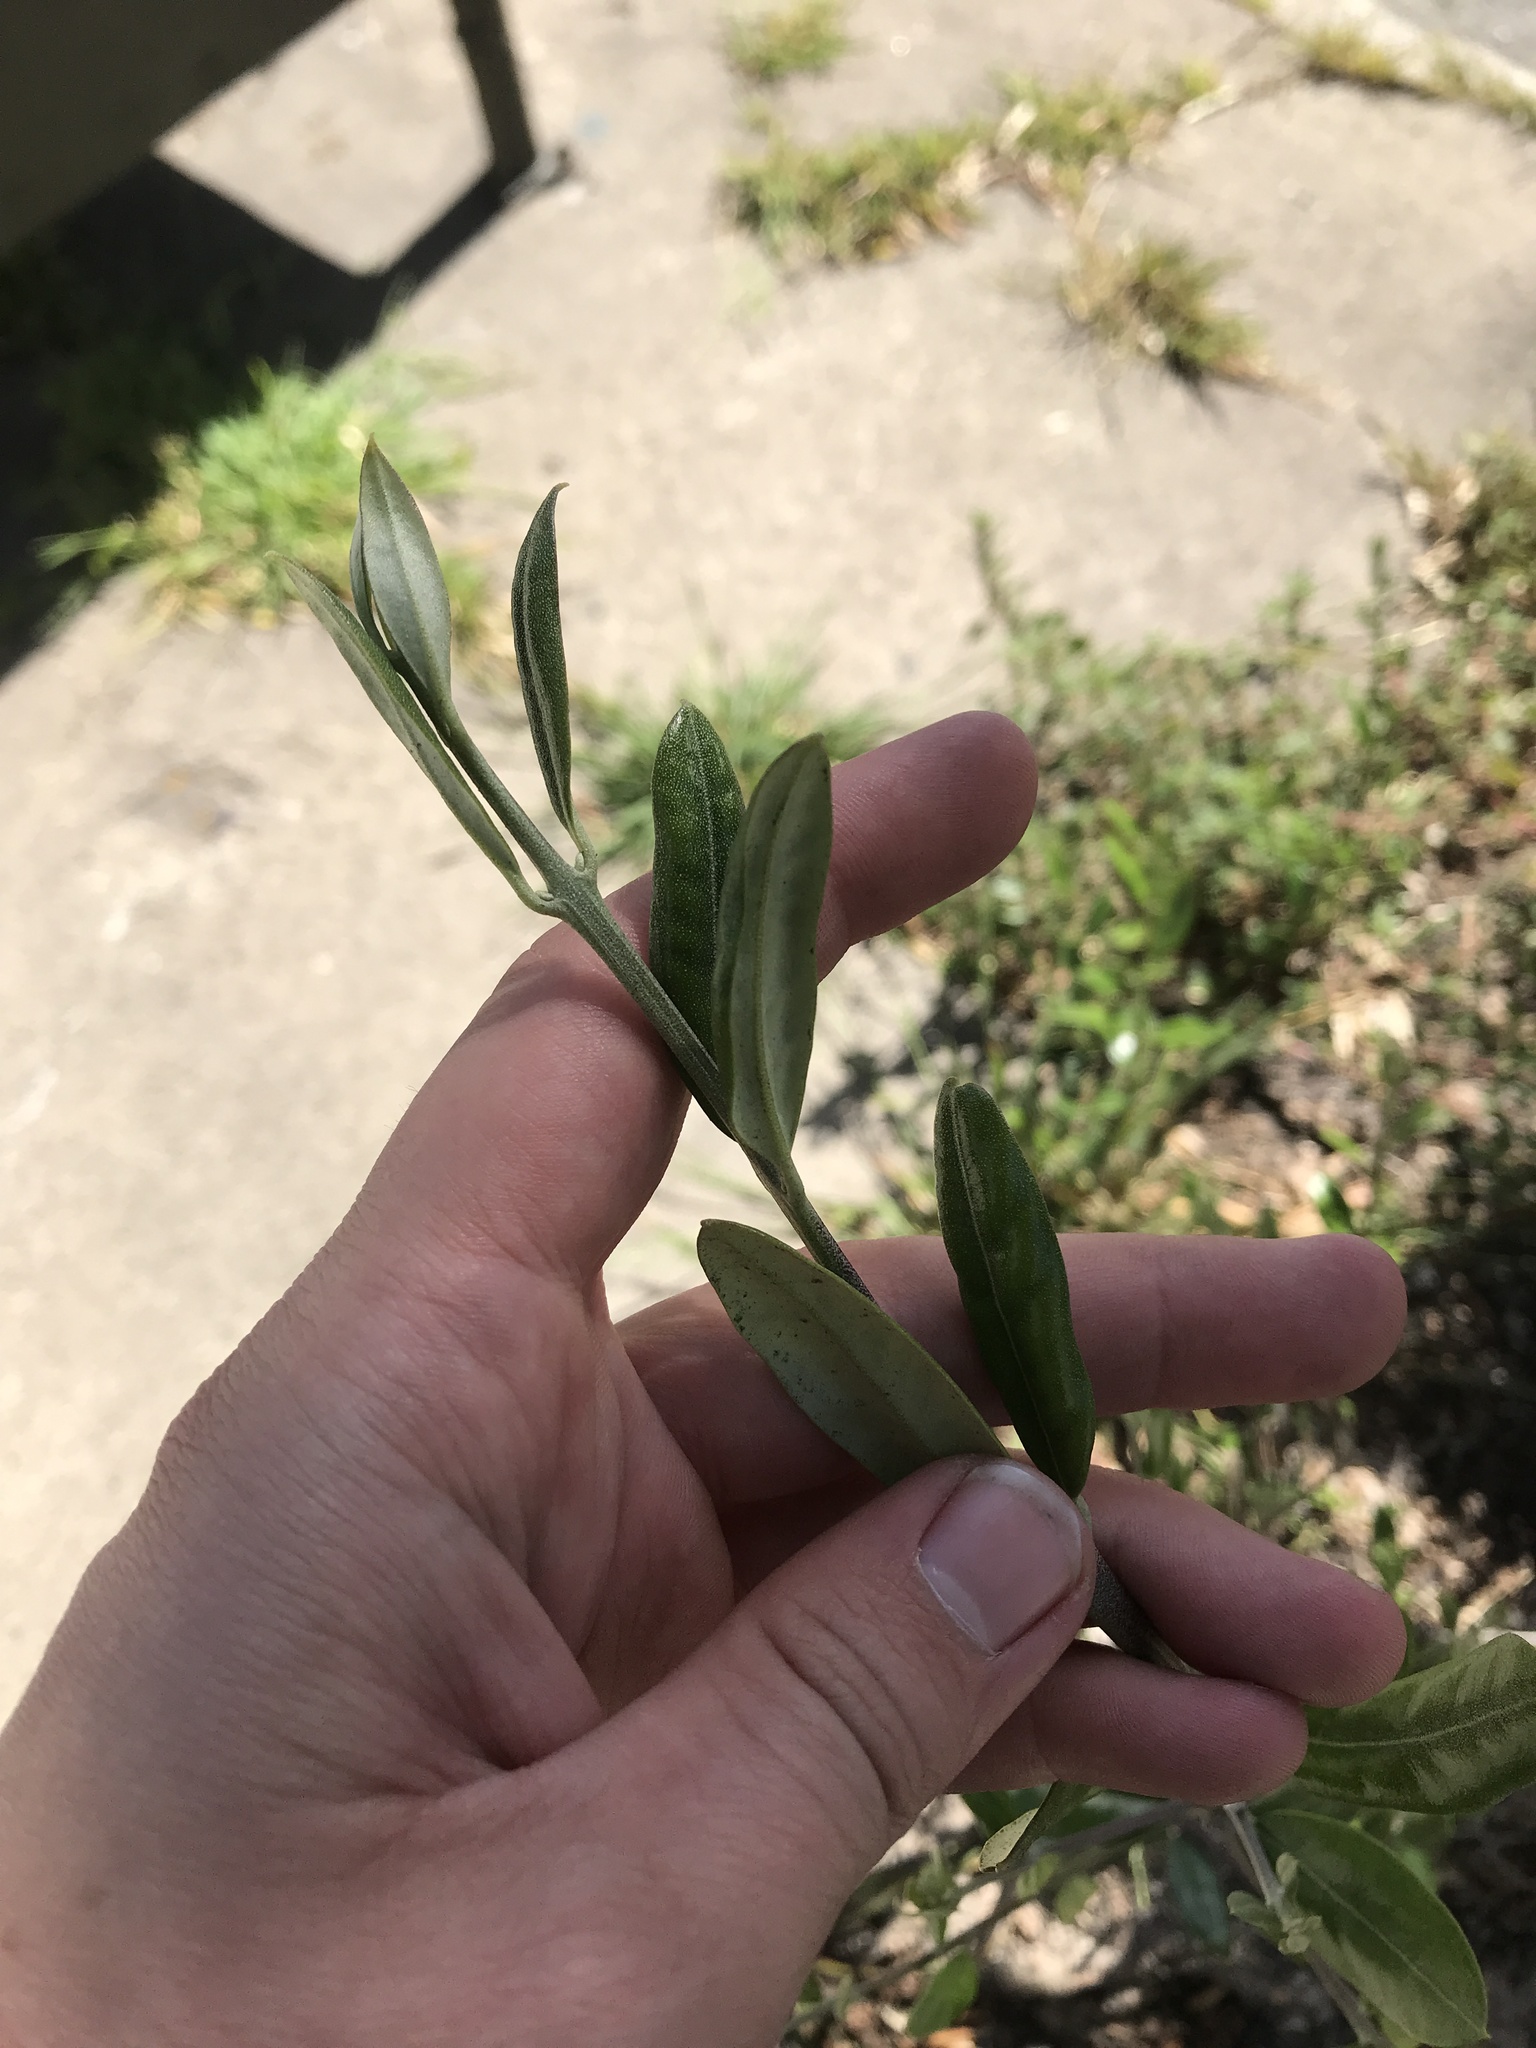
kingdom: Plantae
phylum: Tracheophyta
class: Magnoliopsida
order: Lamiales
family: Oleaceae
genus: Olea
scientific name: Olea europaea
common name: Olive
